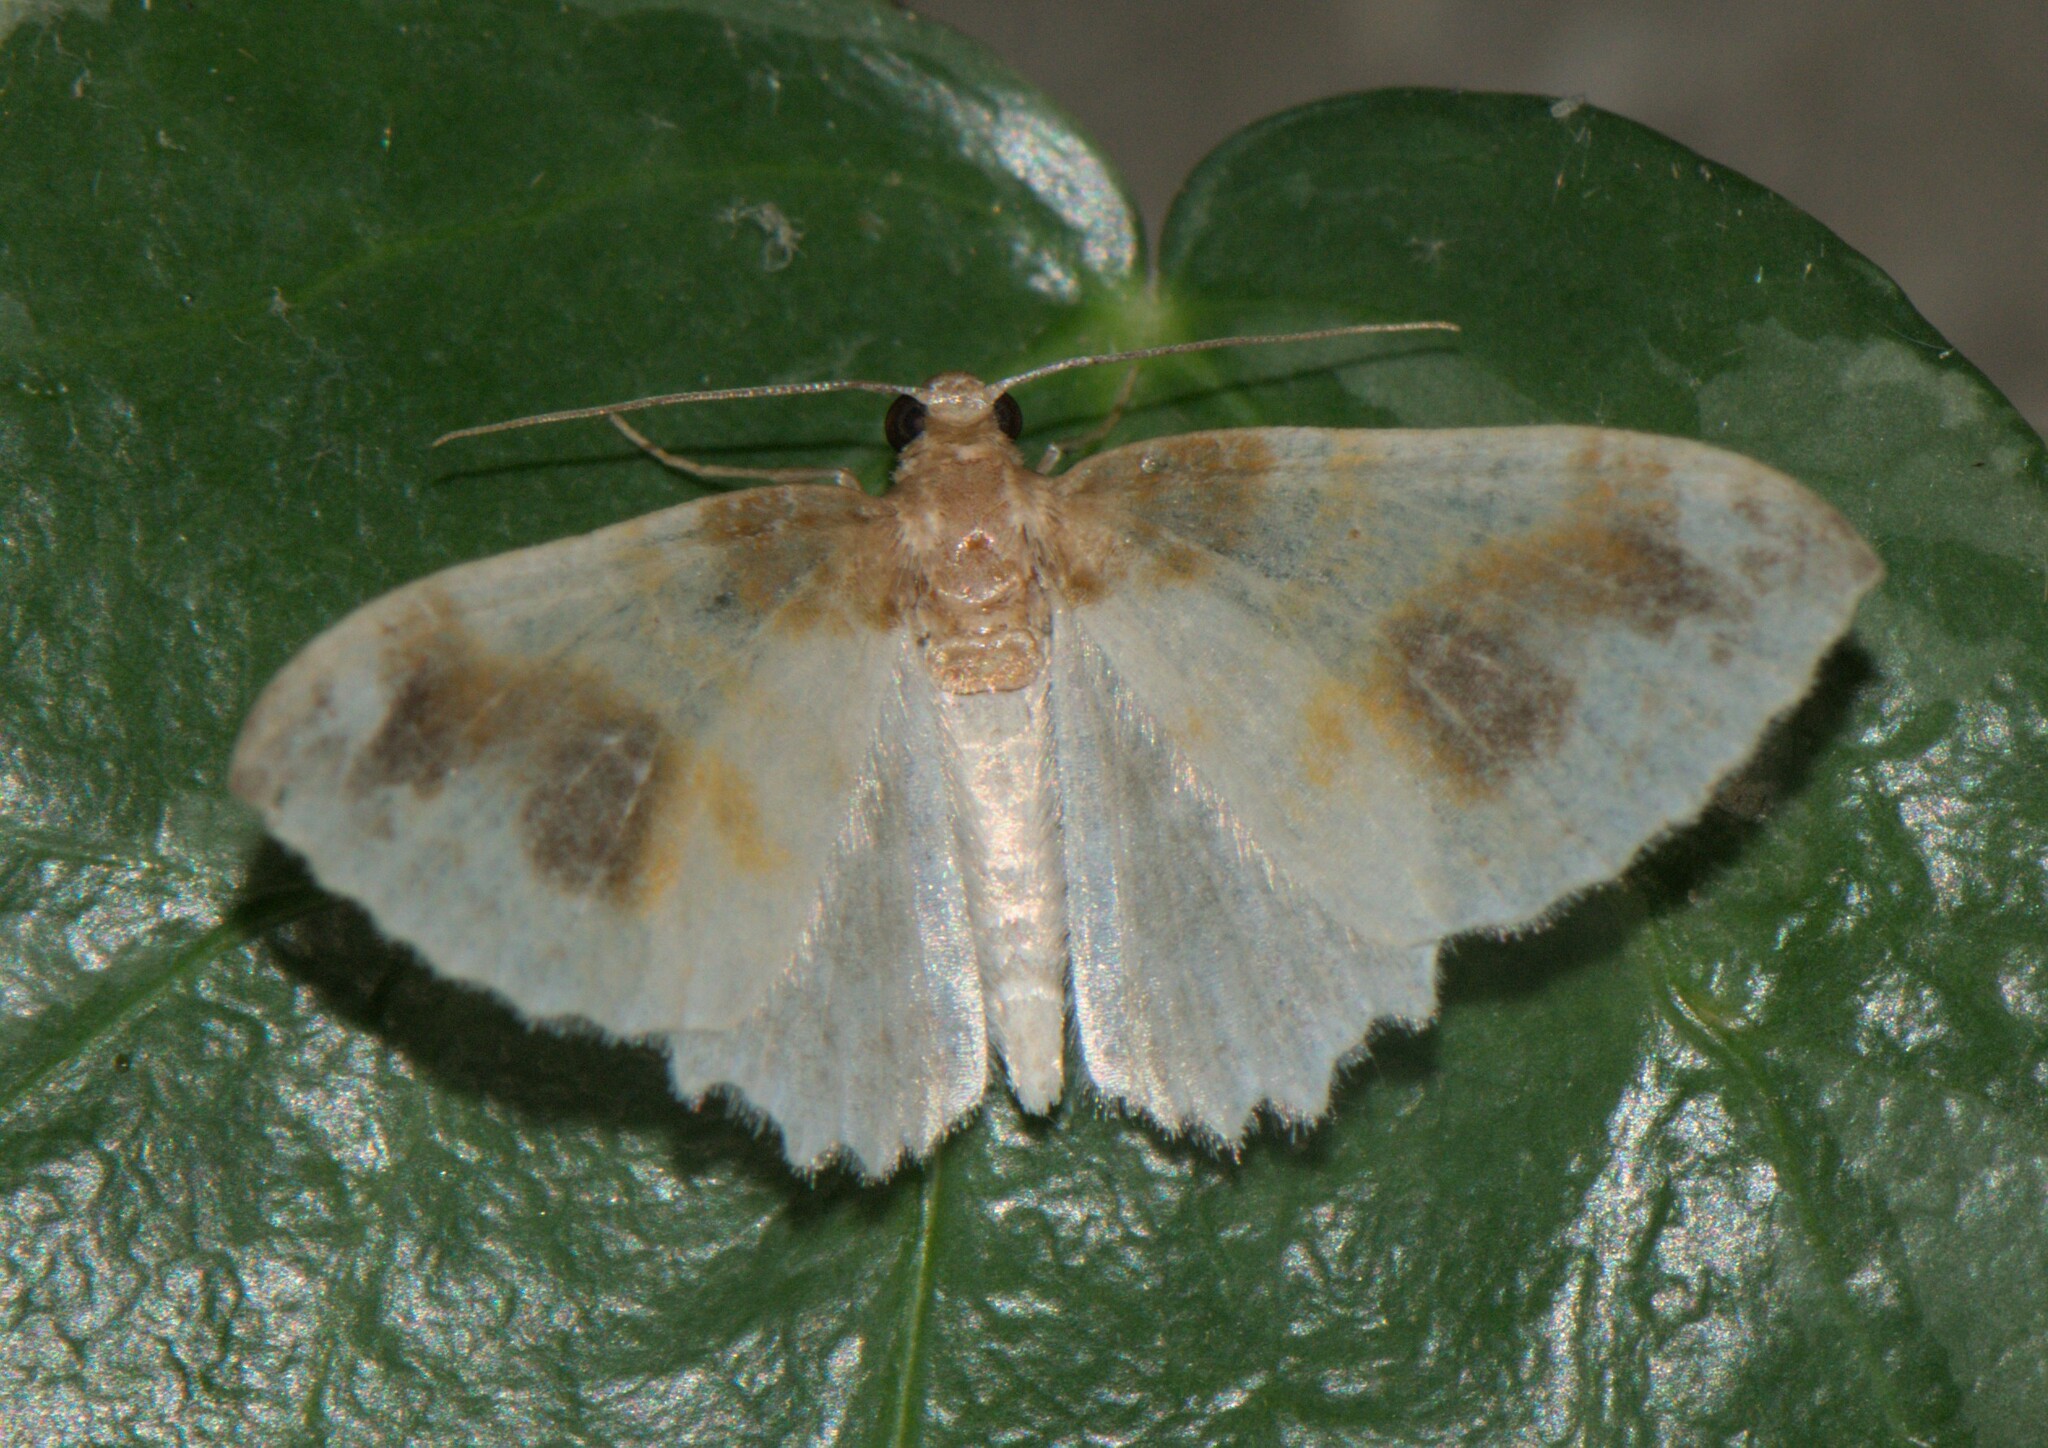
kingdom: Animalia
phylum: Arthropoda
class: Insecta
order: Lepidoptera
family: Geometridae
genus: Agnibesa
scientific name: Agnibesa pictaria
